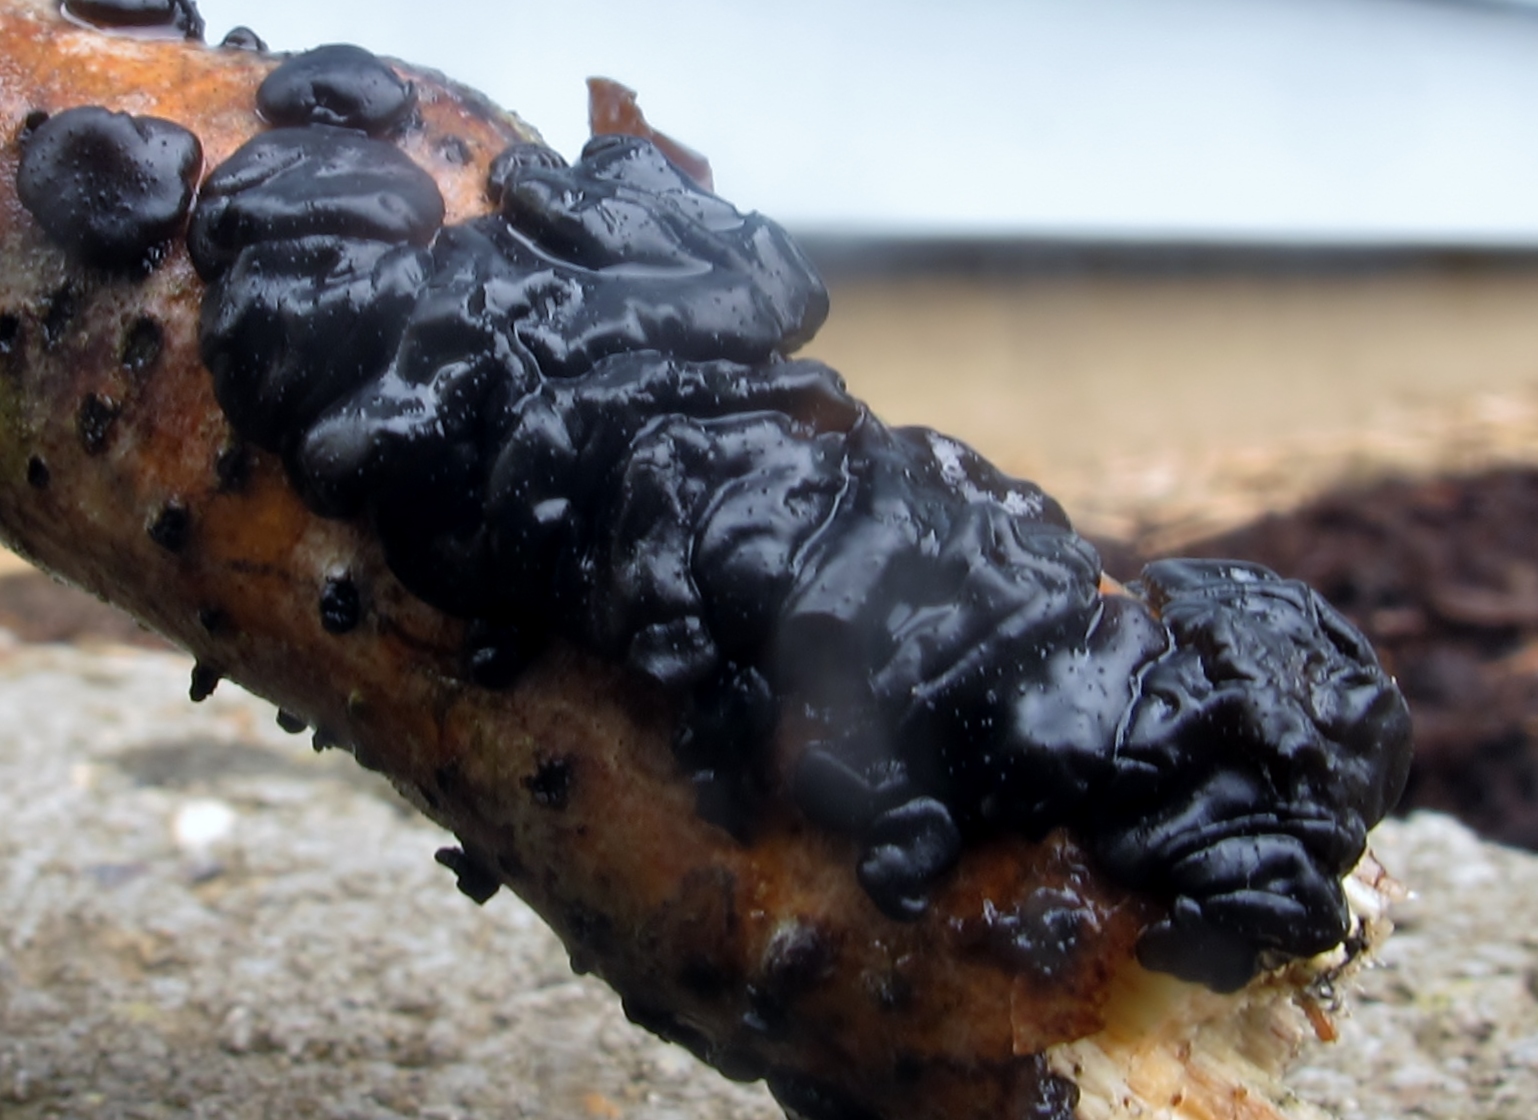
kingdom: Fungi
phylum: Basidiomycota
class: Agaricomycetes
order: Auriculariales
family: Auriculariaceae
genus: Exidia
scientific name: Exidia glandulosa
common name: Witches' butter
